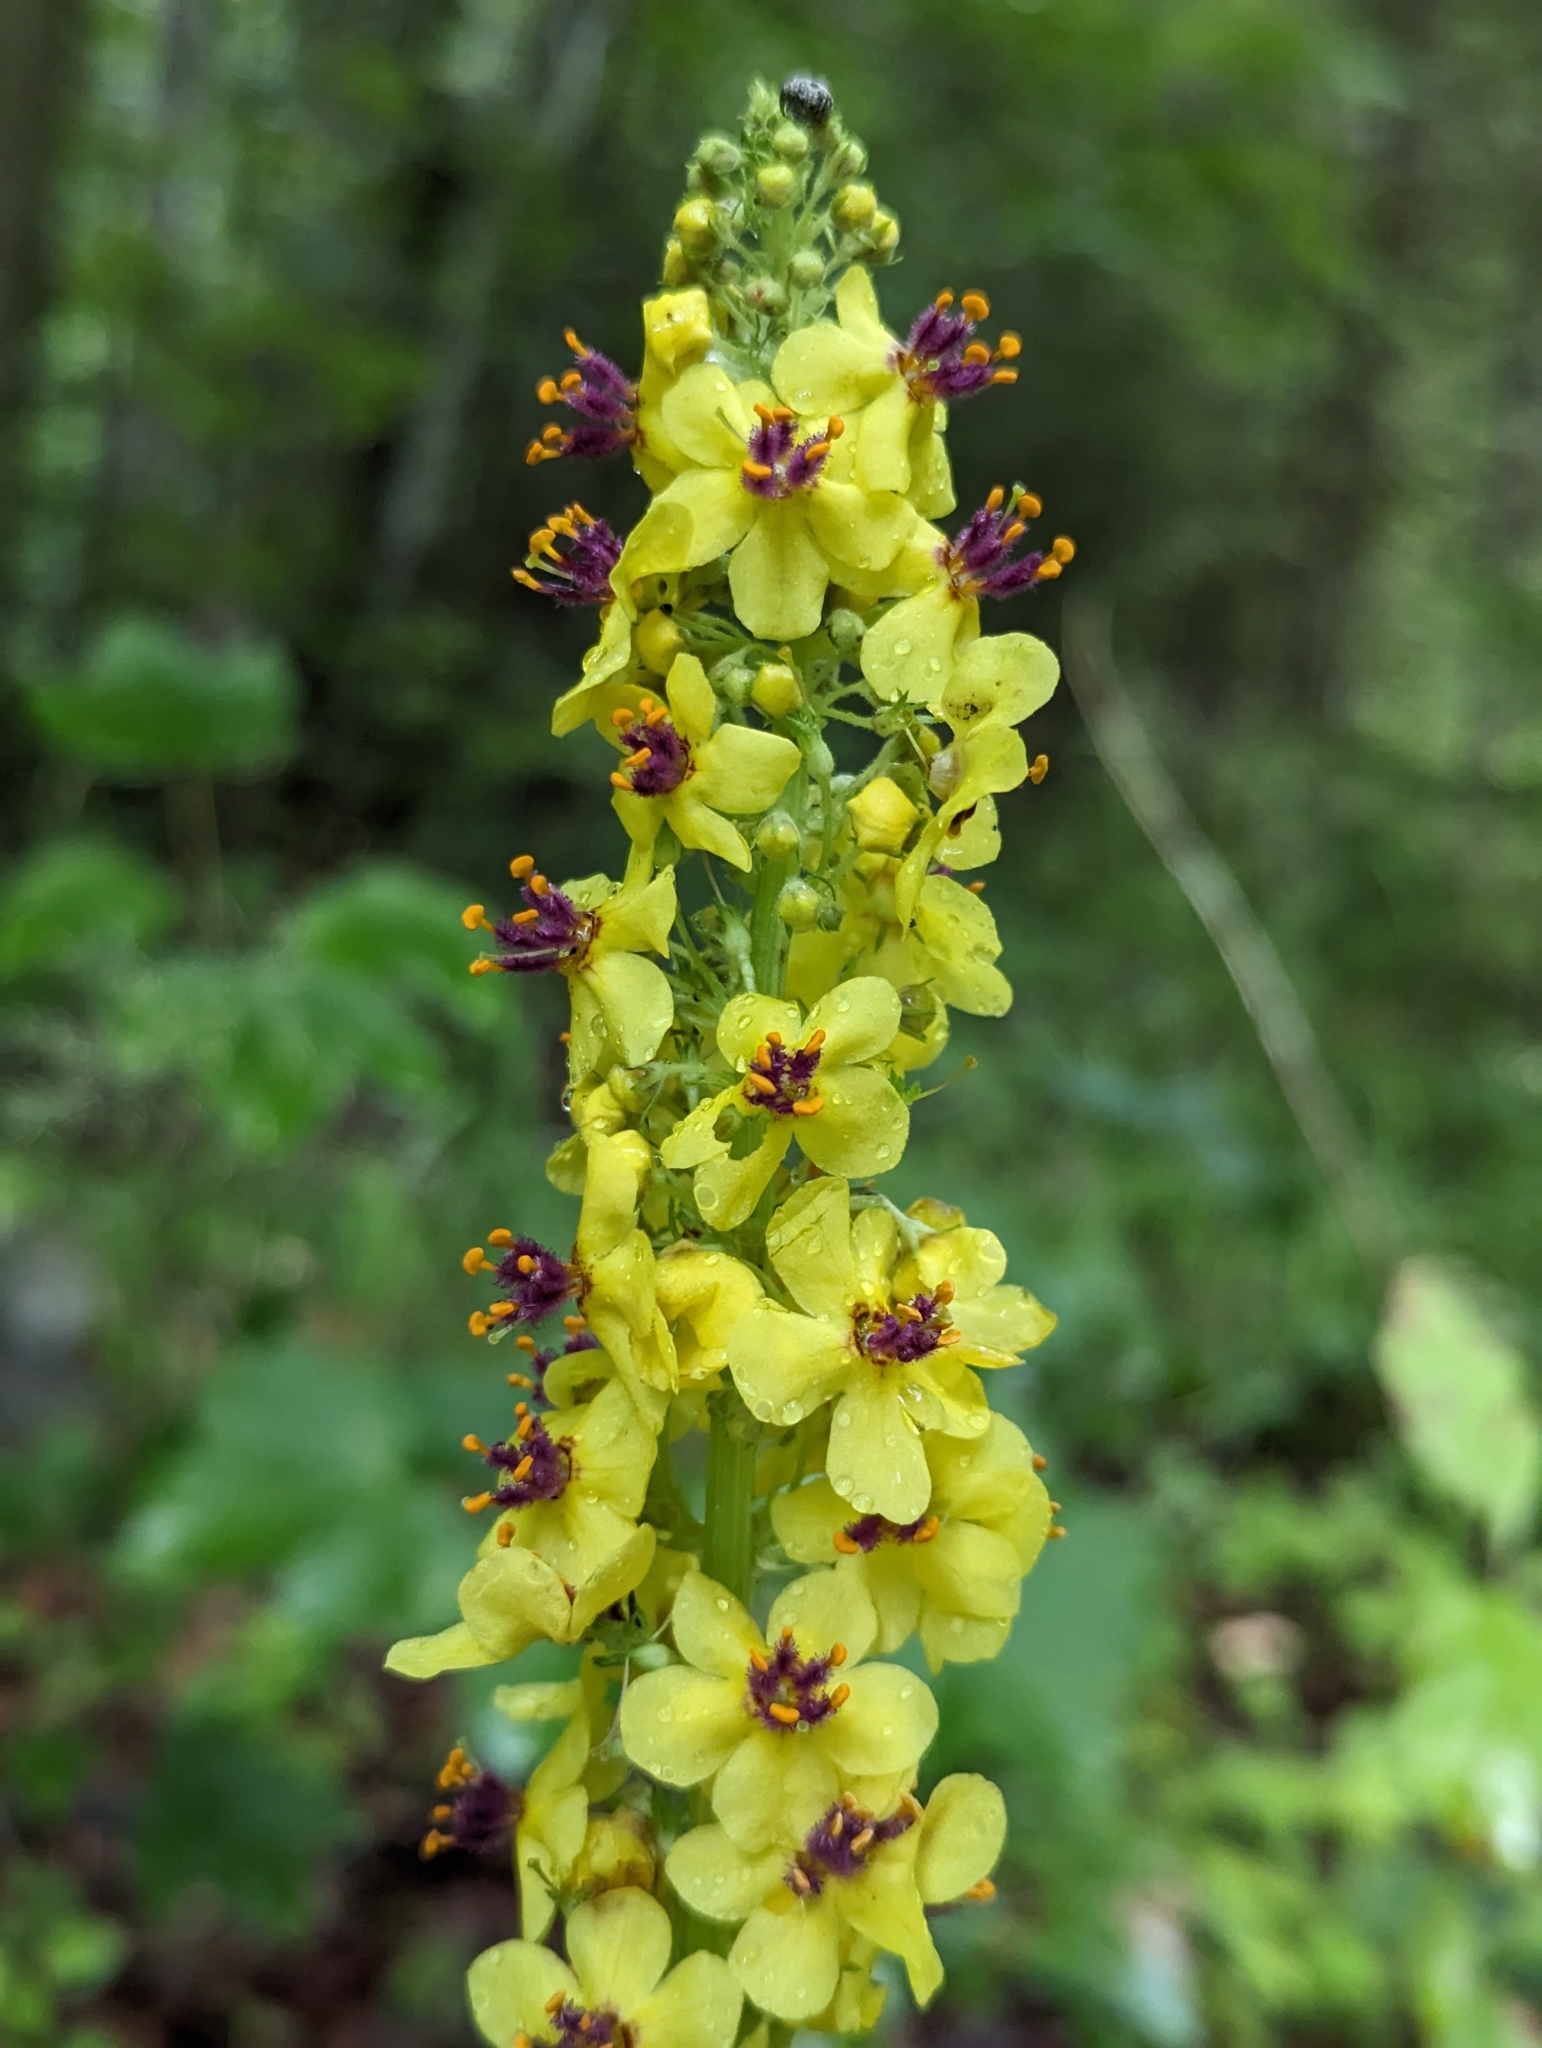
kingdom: Plantae
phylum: Tracheophyta
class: Magnoliopsida
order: Lamiales
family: Scrophulariaceae
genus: Verbascum
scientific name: Verbascum nigrum
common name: Dark mullein
